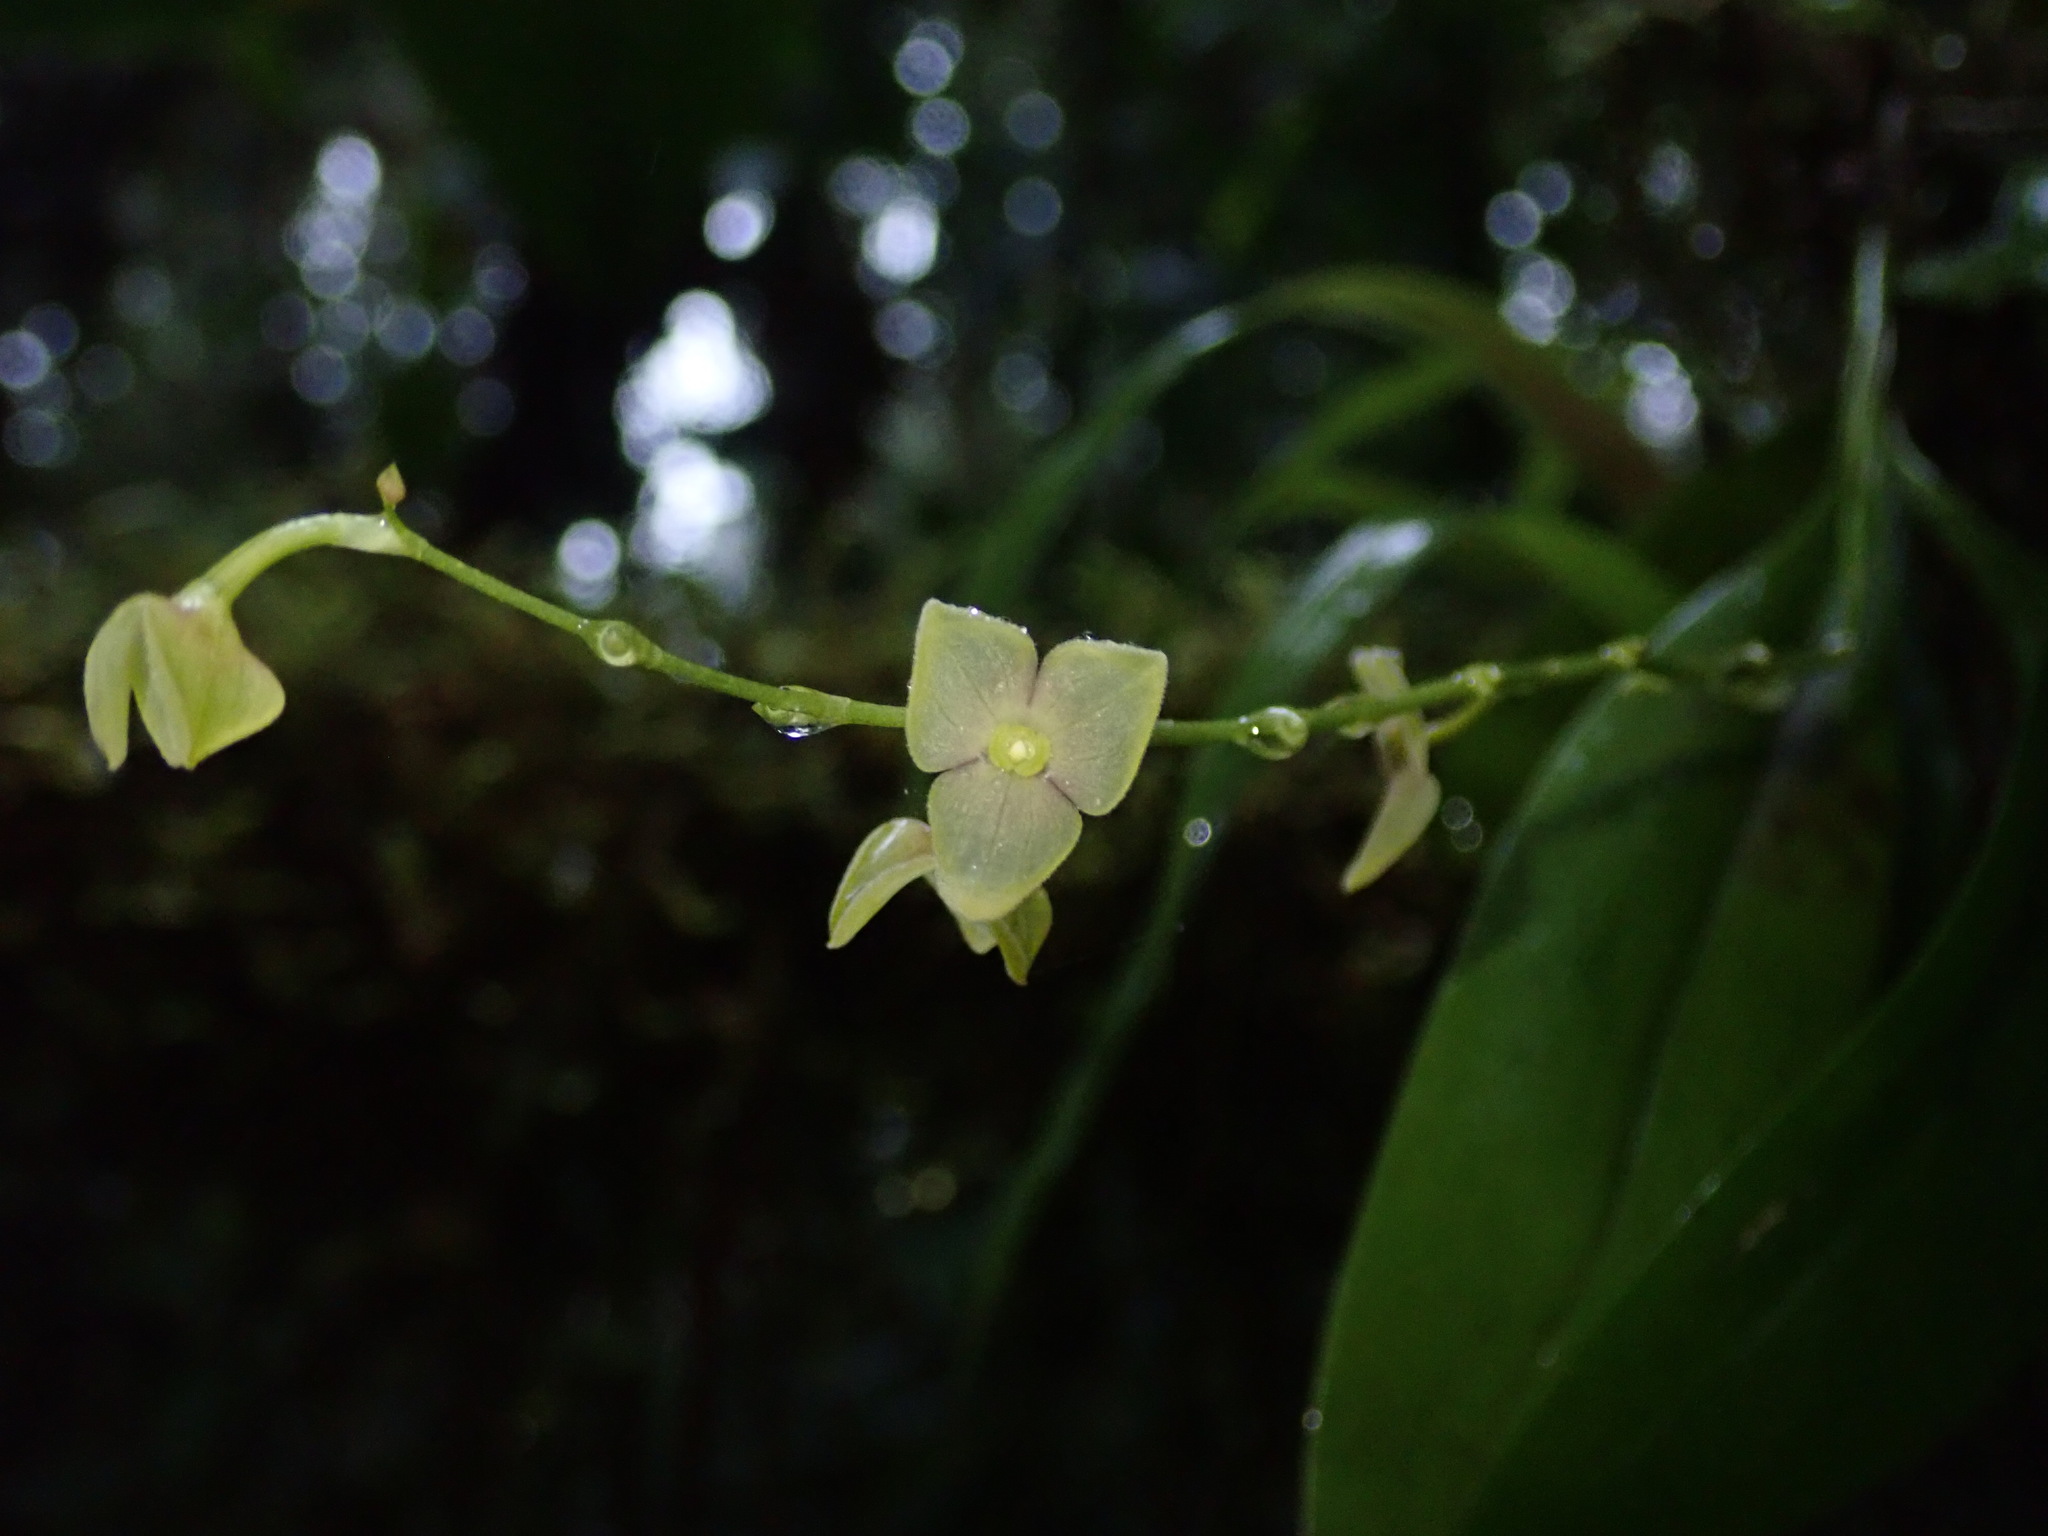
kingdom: Plantae
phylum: Tracheophyta
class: Liliopsida
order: Asparagales
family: Orchidaceae
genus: Stelis
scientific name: Stelis superbiens
